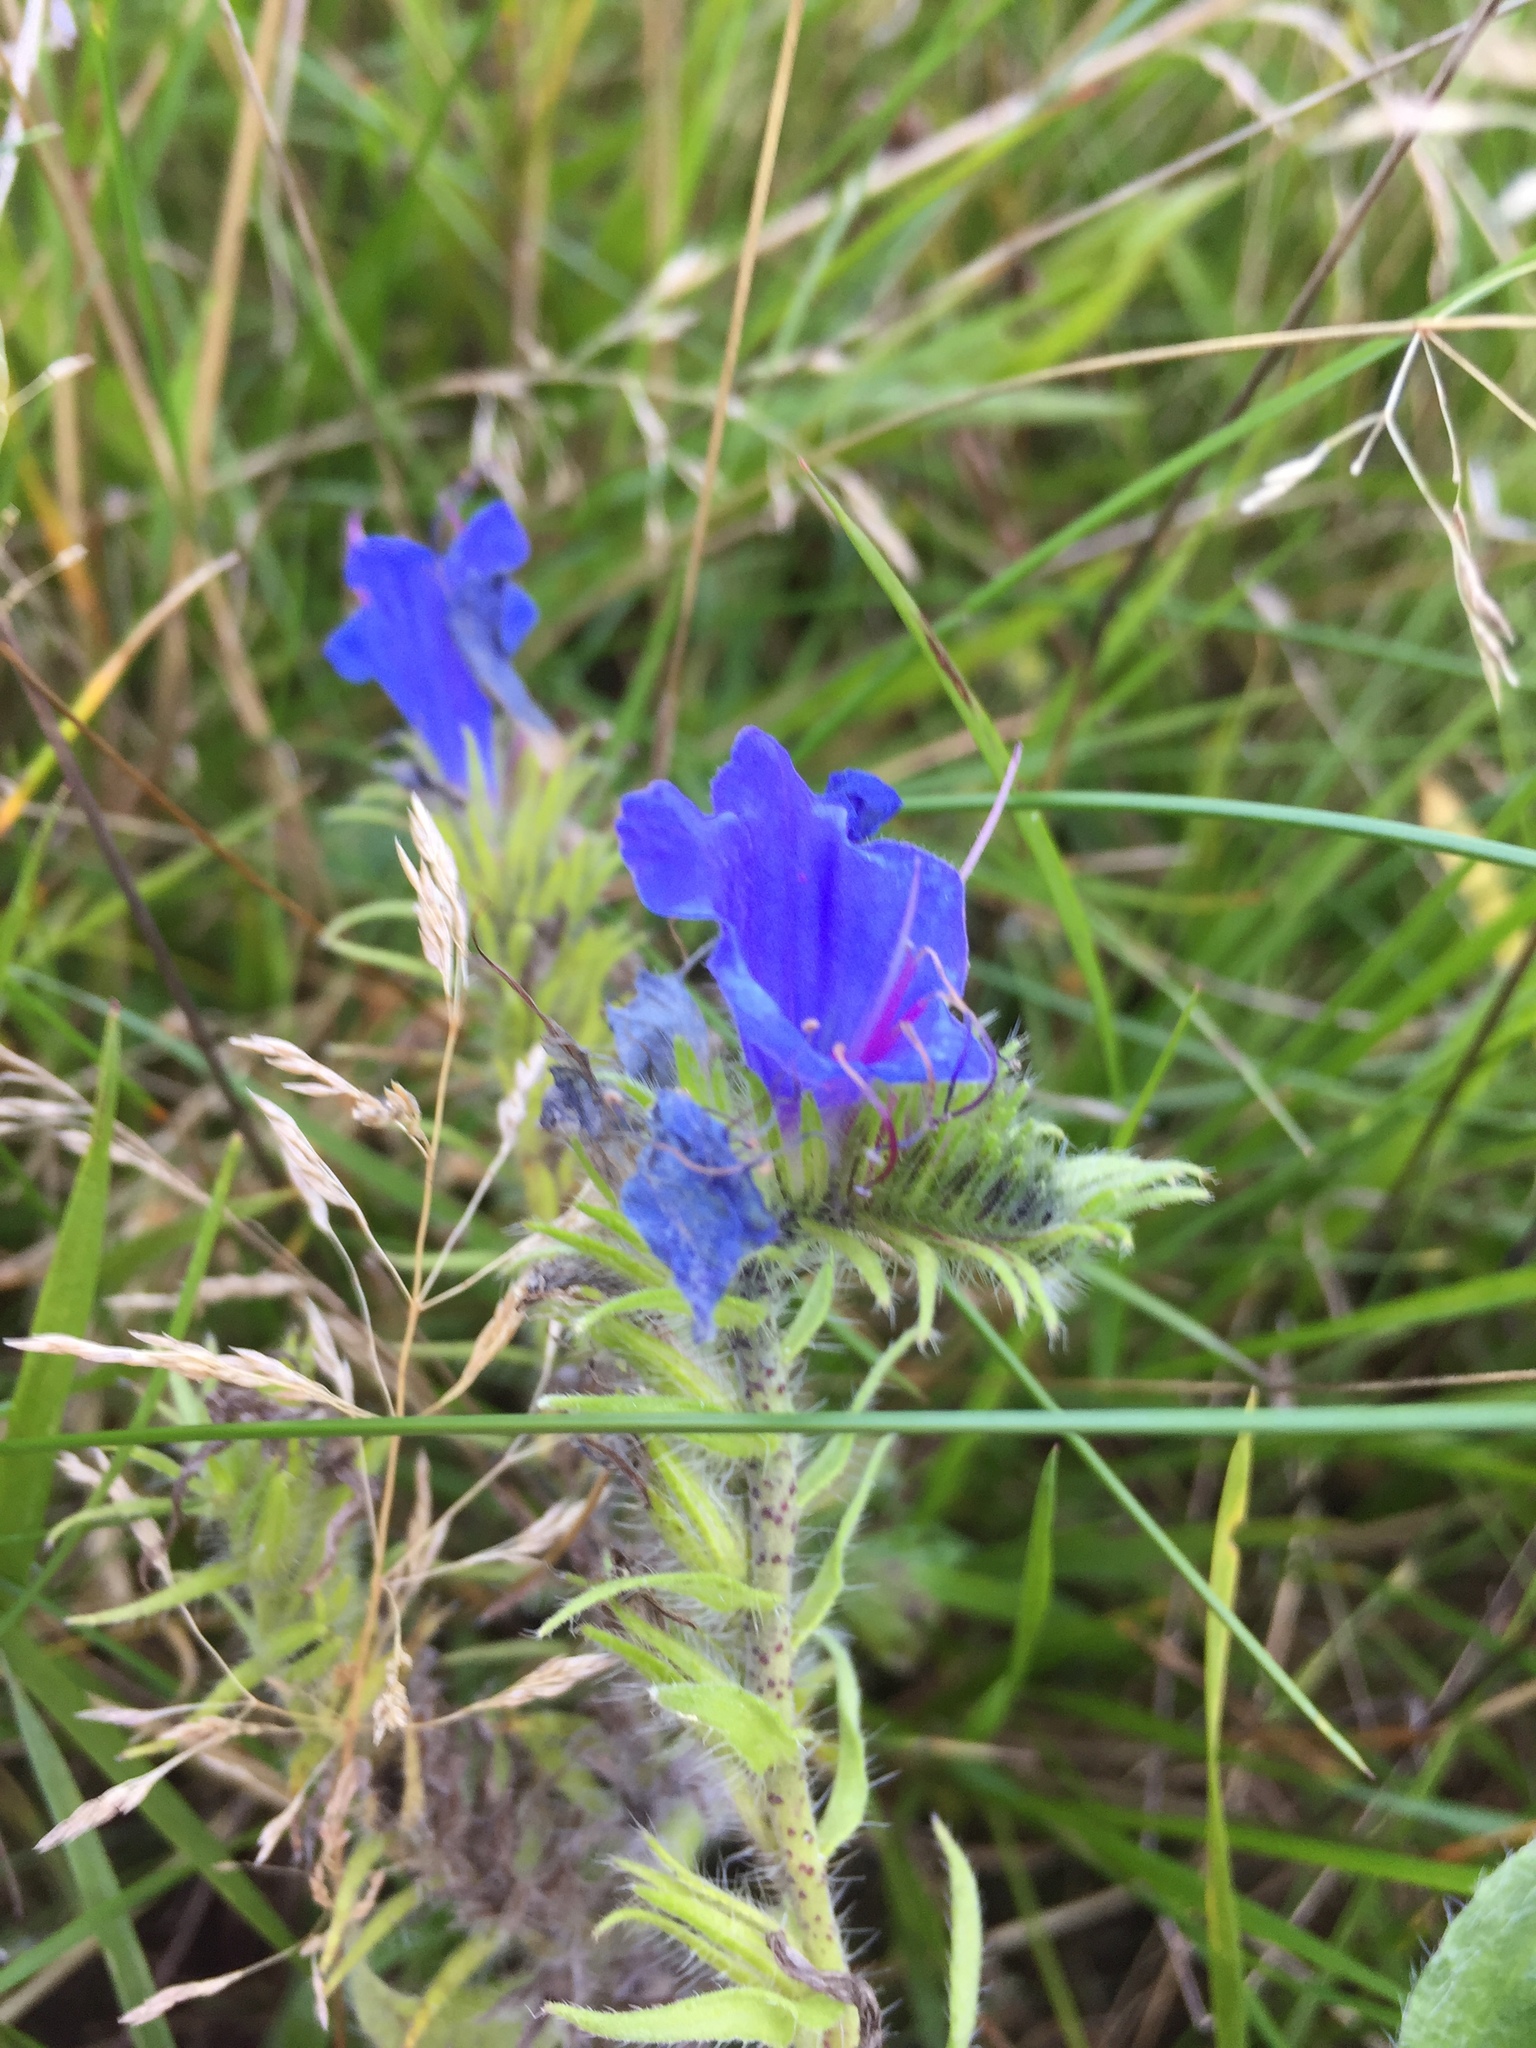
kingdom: Plantae
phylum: Tracheophyta
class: Magnoliopsida
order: Boraginales
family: Boraginaceae
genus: Echium
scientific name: Echium vulgare
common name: Common viper's bugloss
